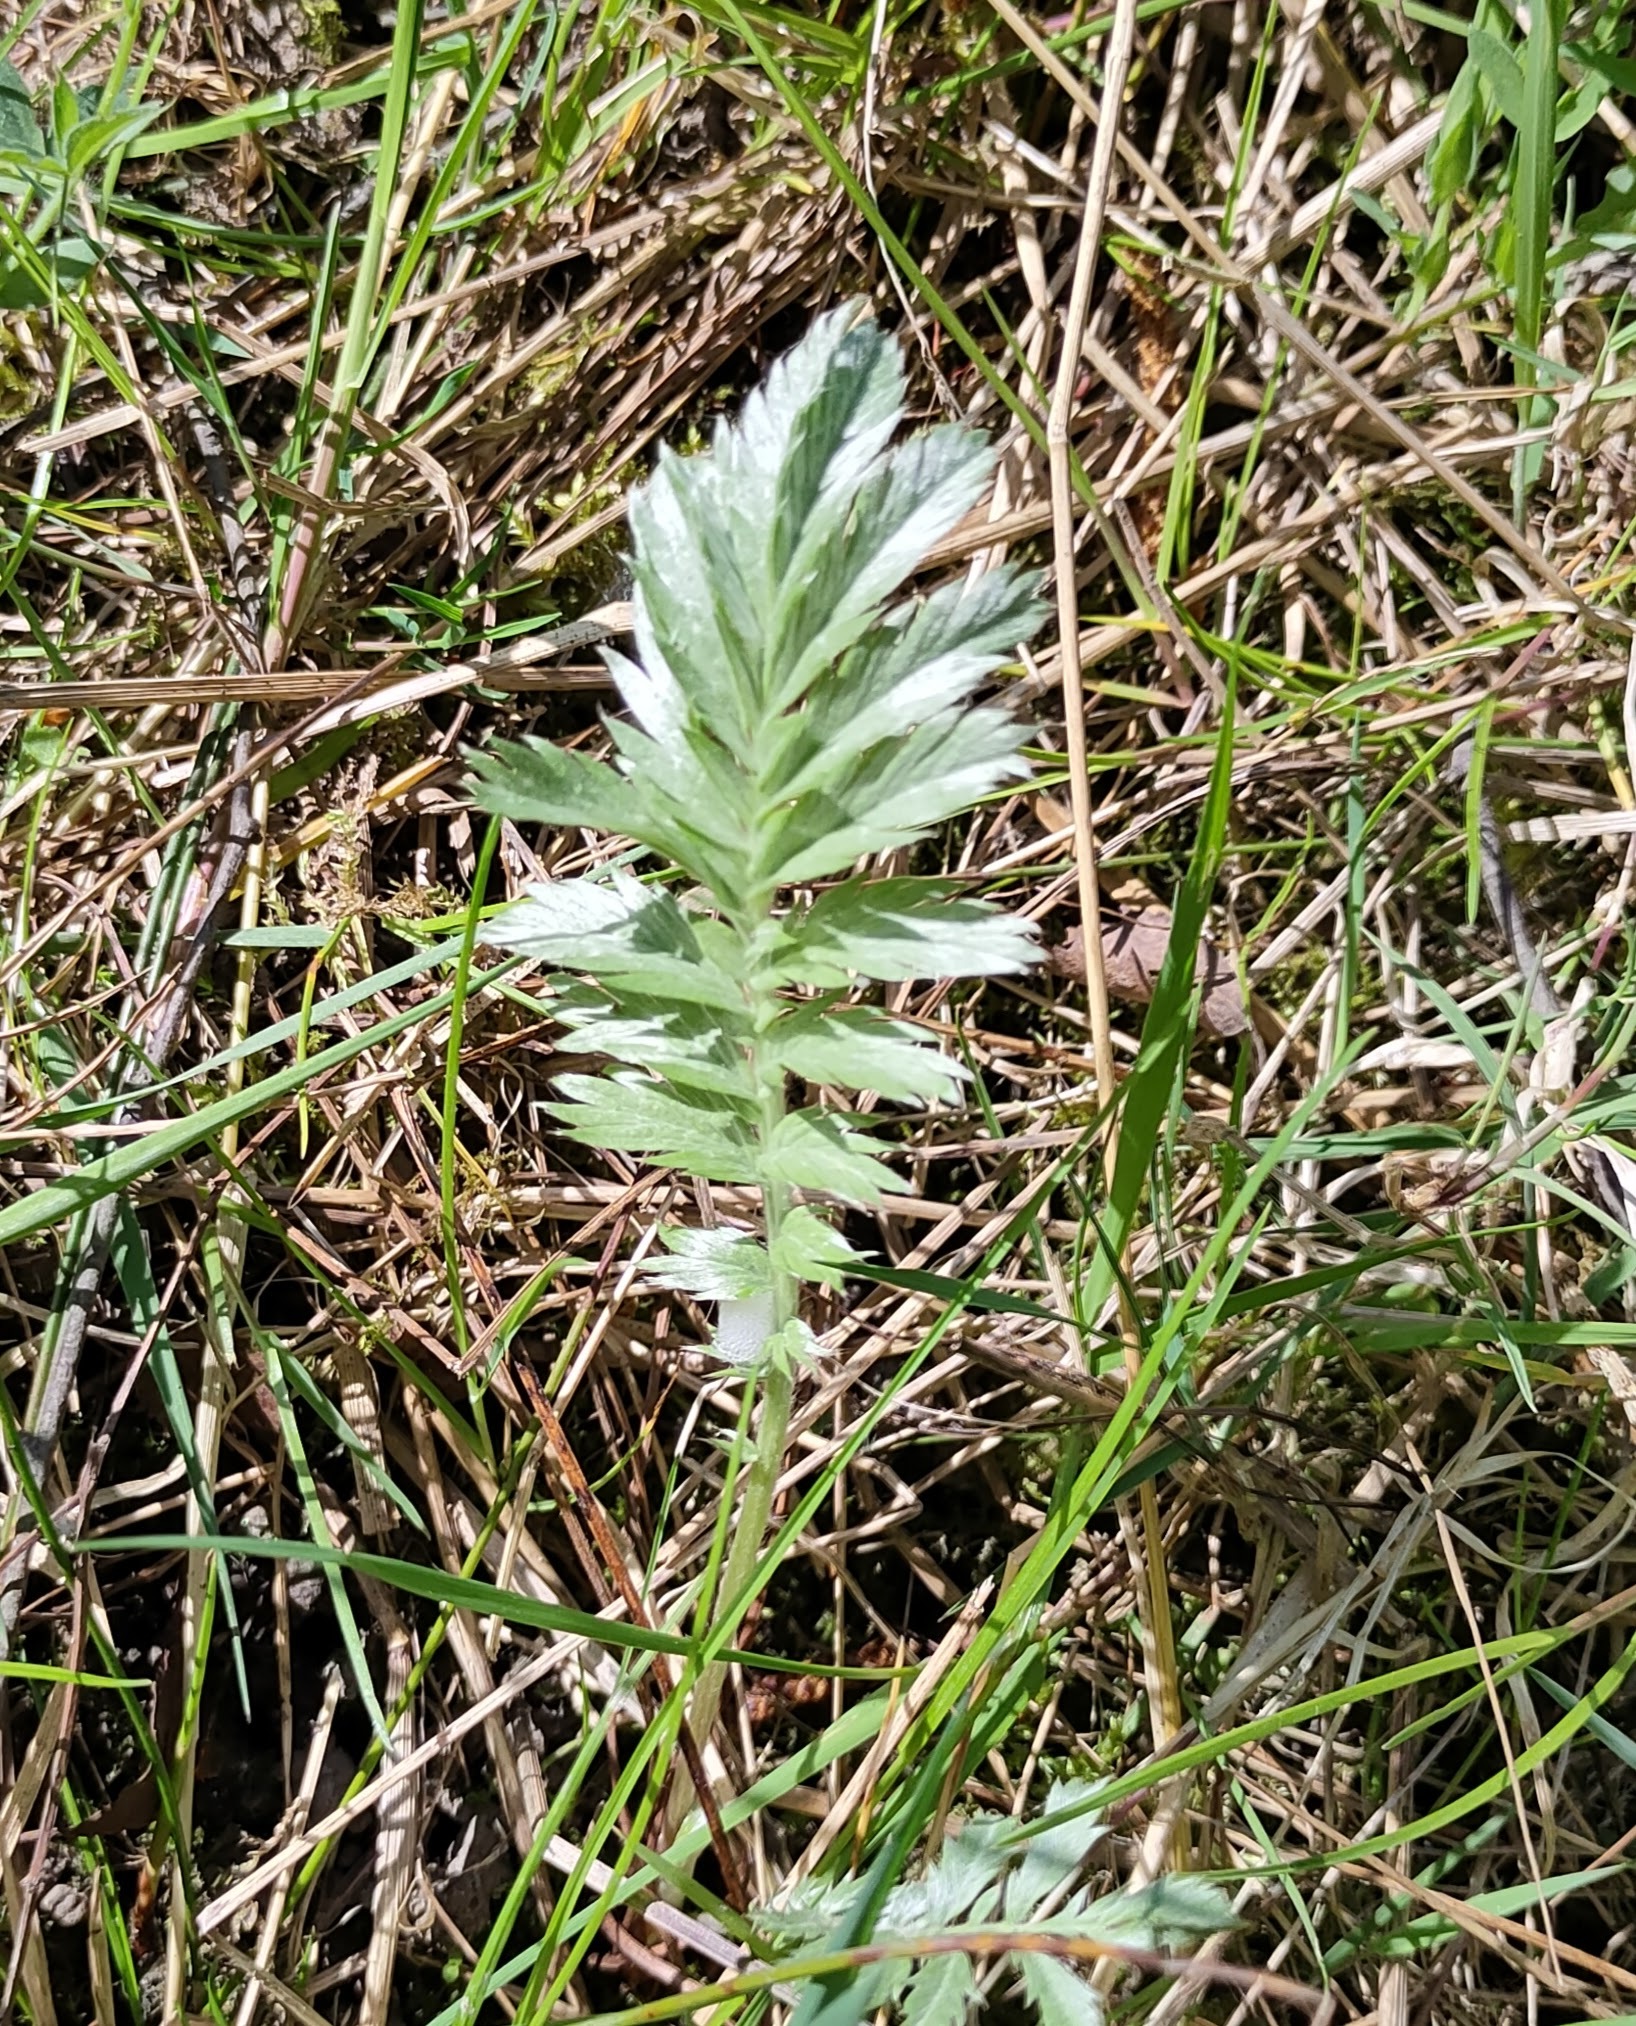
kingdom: Plantae
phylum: Tracheophyta
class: Magnoliopsida
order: Rosales
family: Rosaceae
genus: Argentina
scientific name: Argentina anserina
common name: Common silverweed
